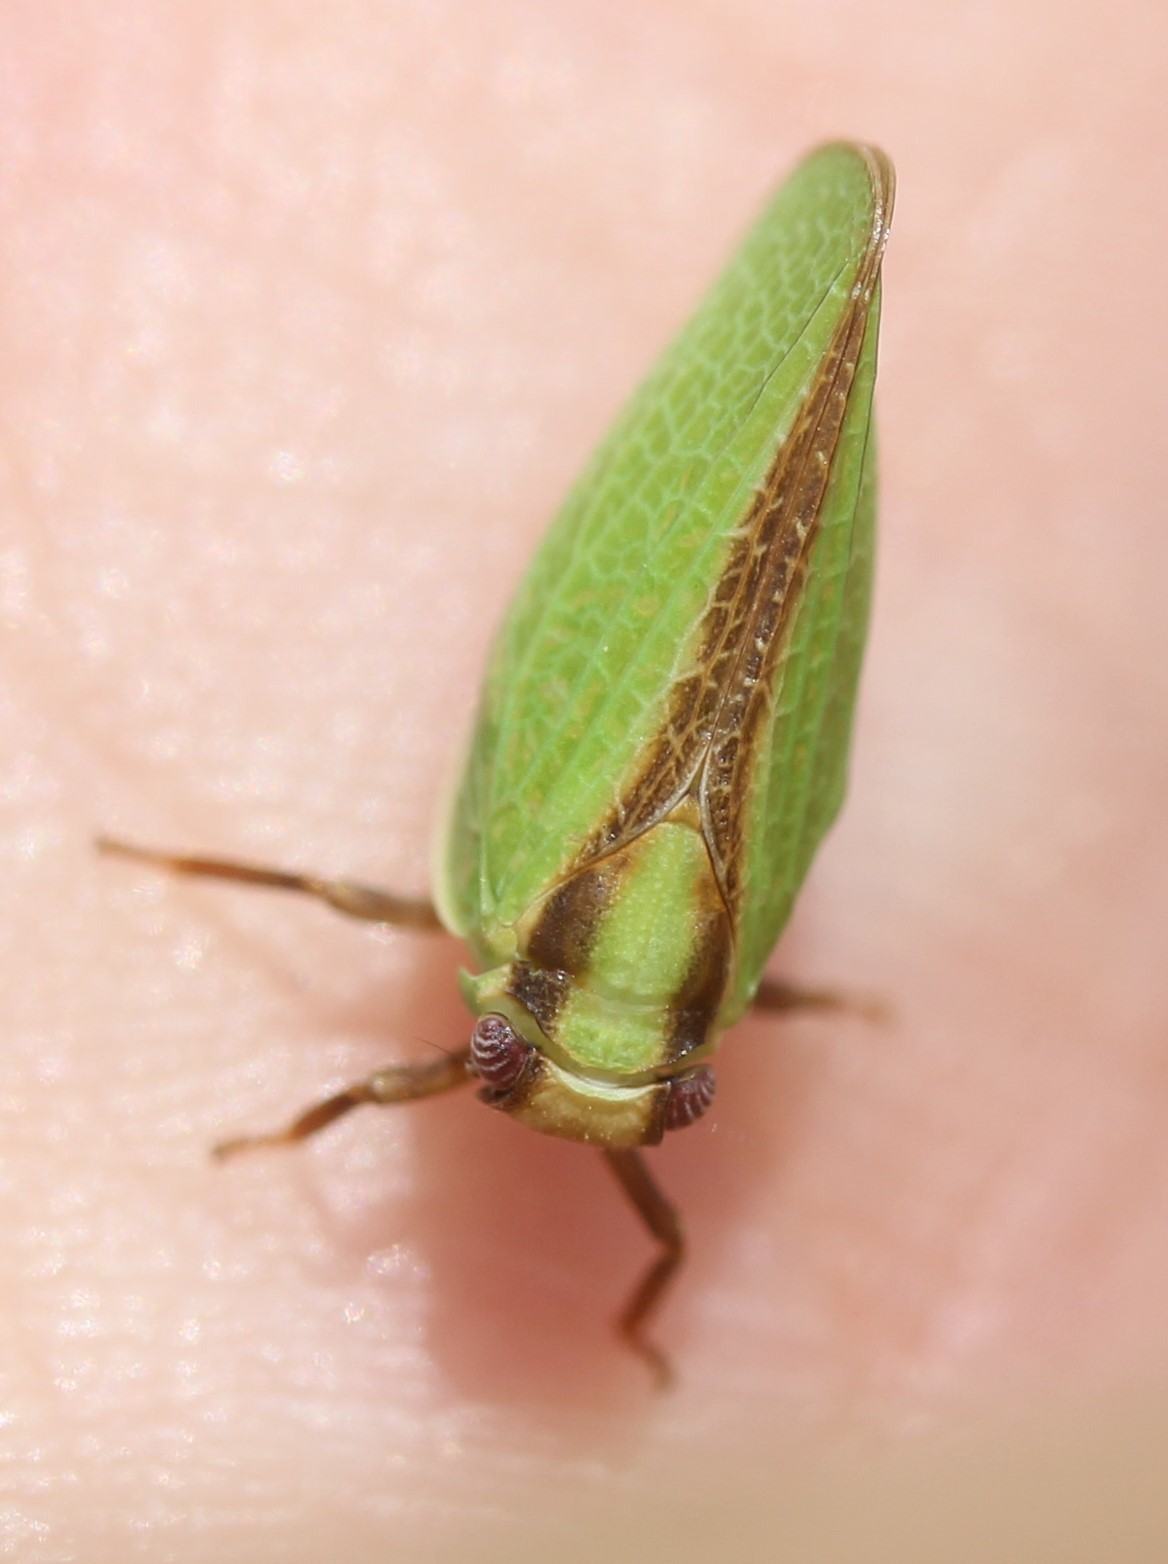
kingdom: Animalia
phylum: Arthropoda
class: Insecta
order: Hemiptera
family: Acanaloniidae
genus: Acanalonia
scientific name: Acanalonia bivittata
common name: Two-striped planthopper
